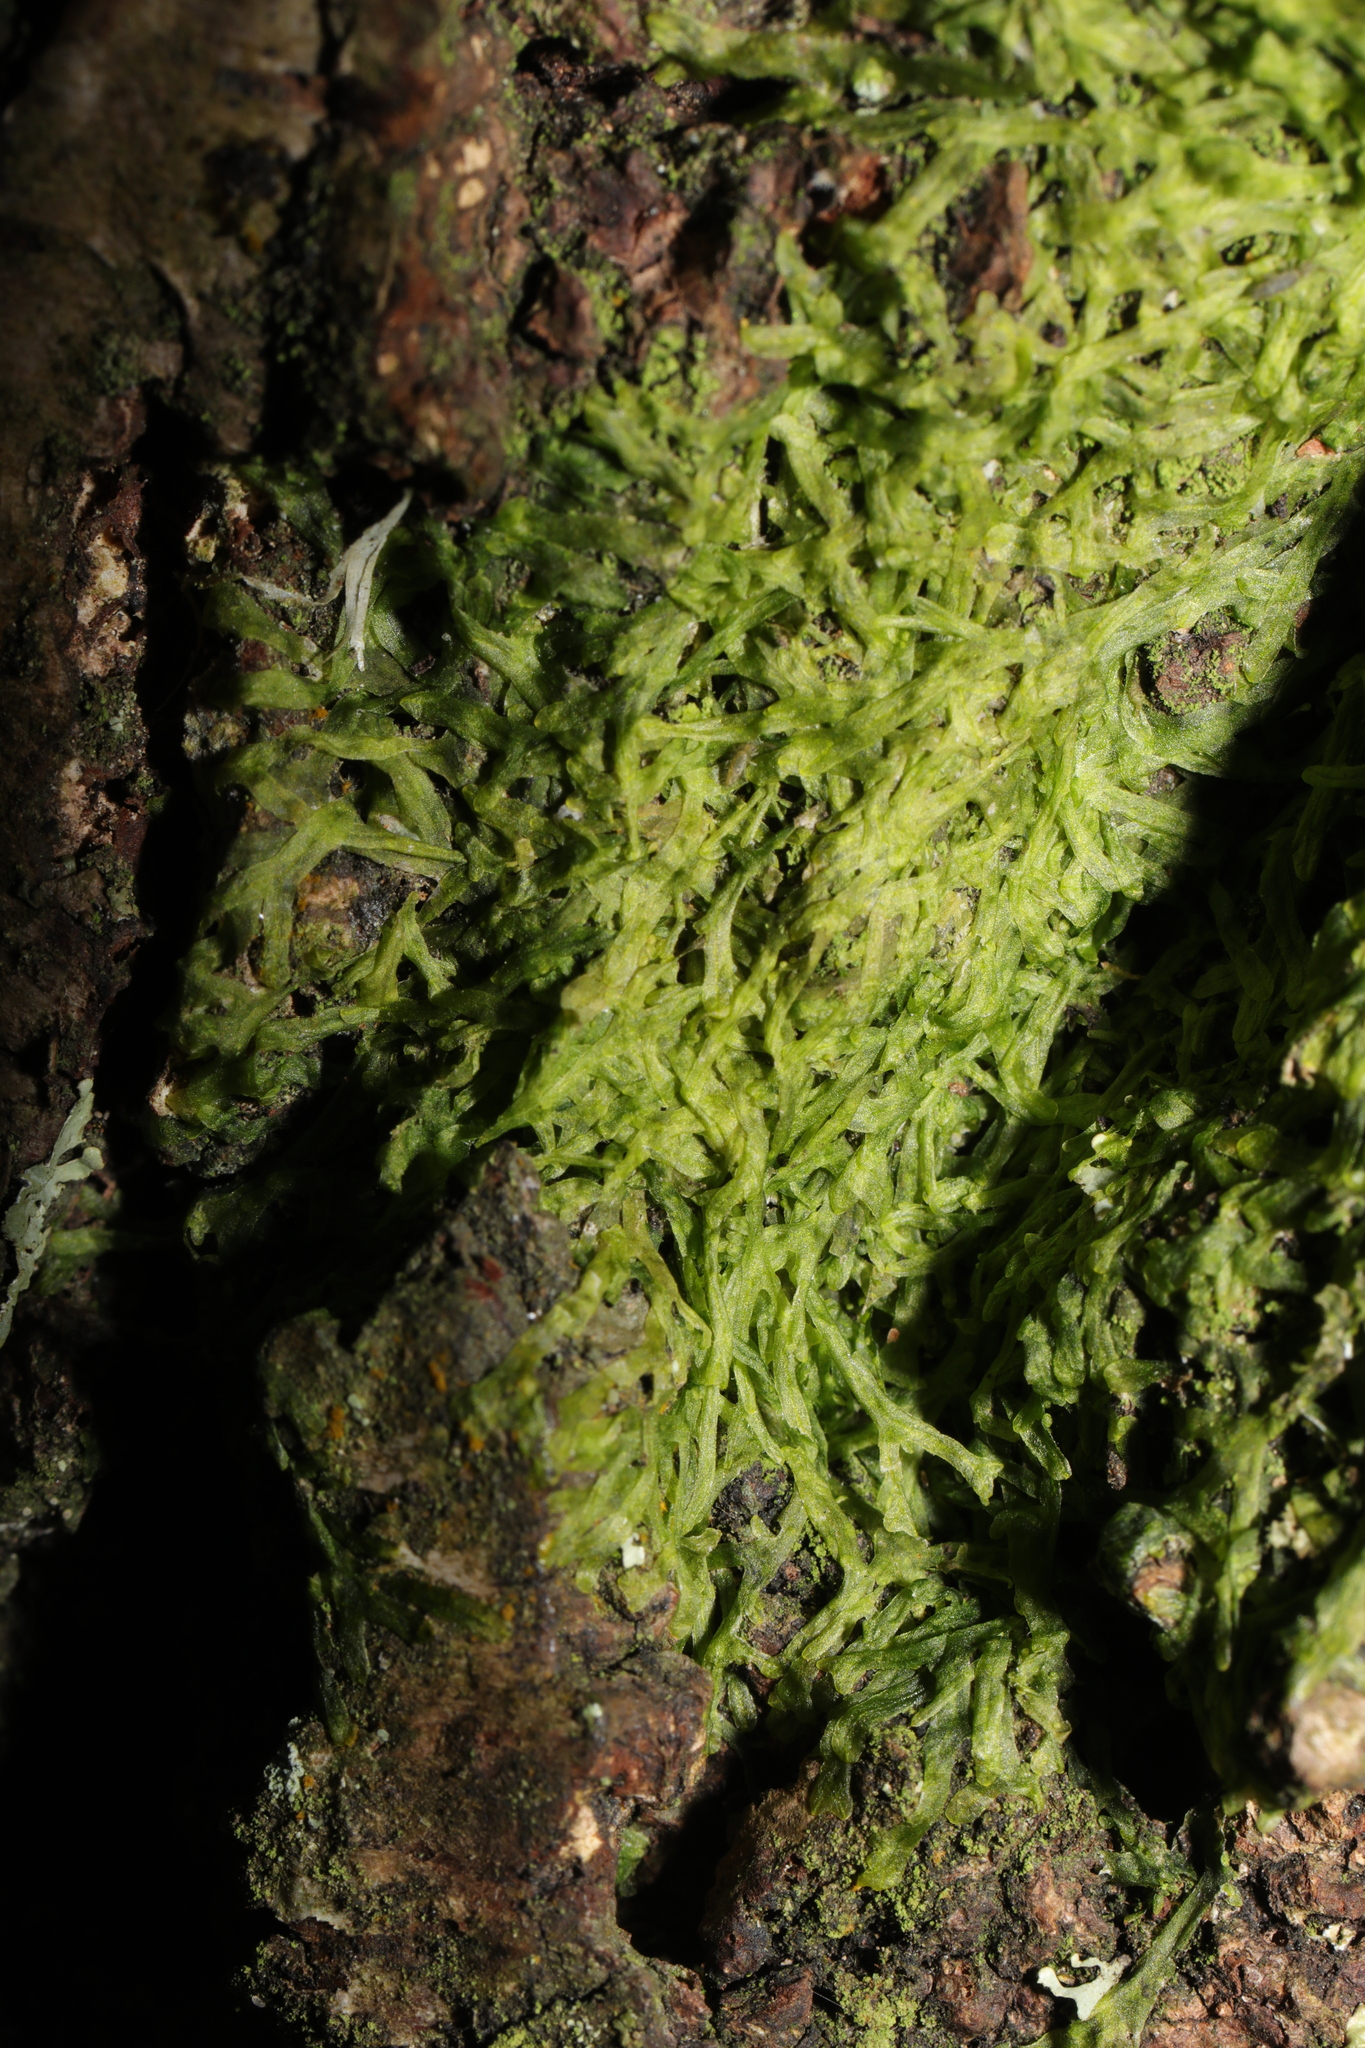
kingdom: Plantae
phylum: Marchantiophyta
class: Jungermanniopsida
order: Metzgeriales
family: Metzgeriaceae
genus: Metzgeria
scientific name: Metzgeria furcata
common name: Forked veilwort
